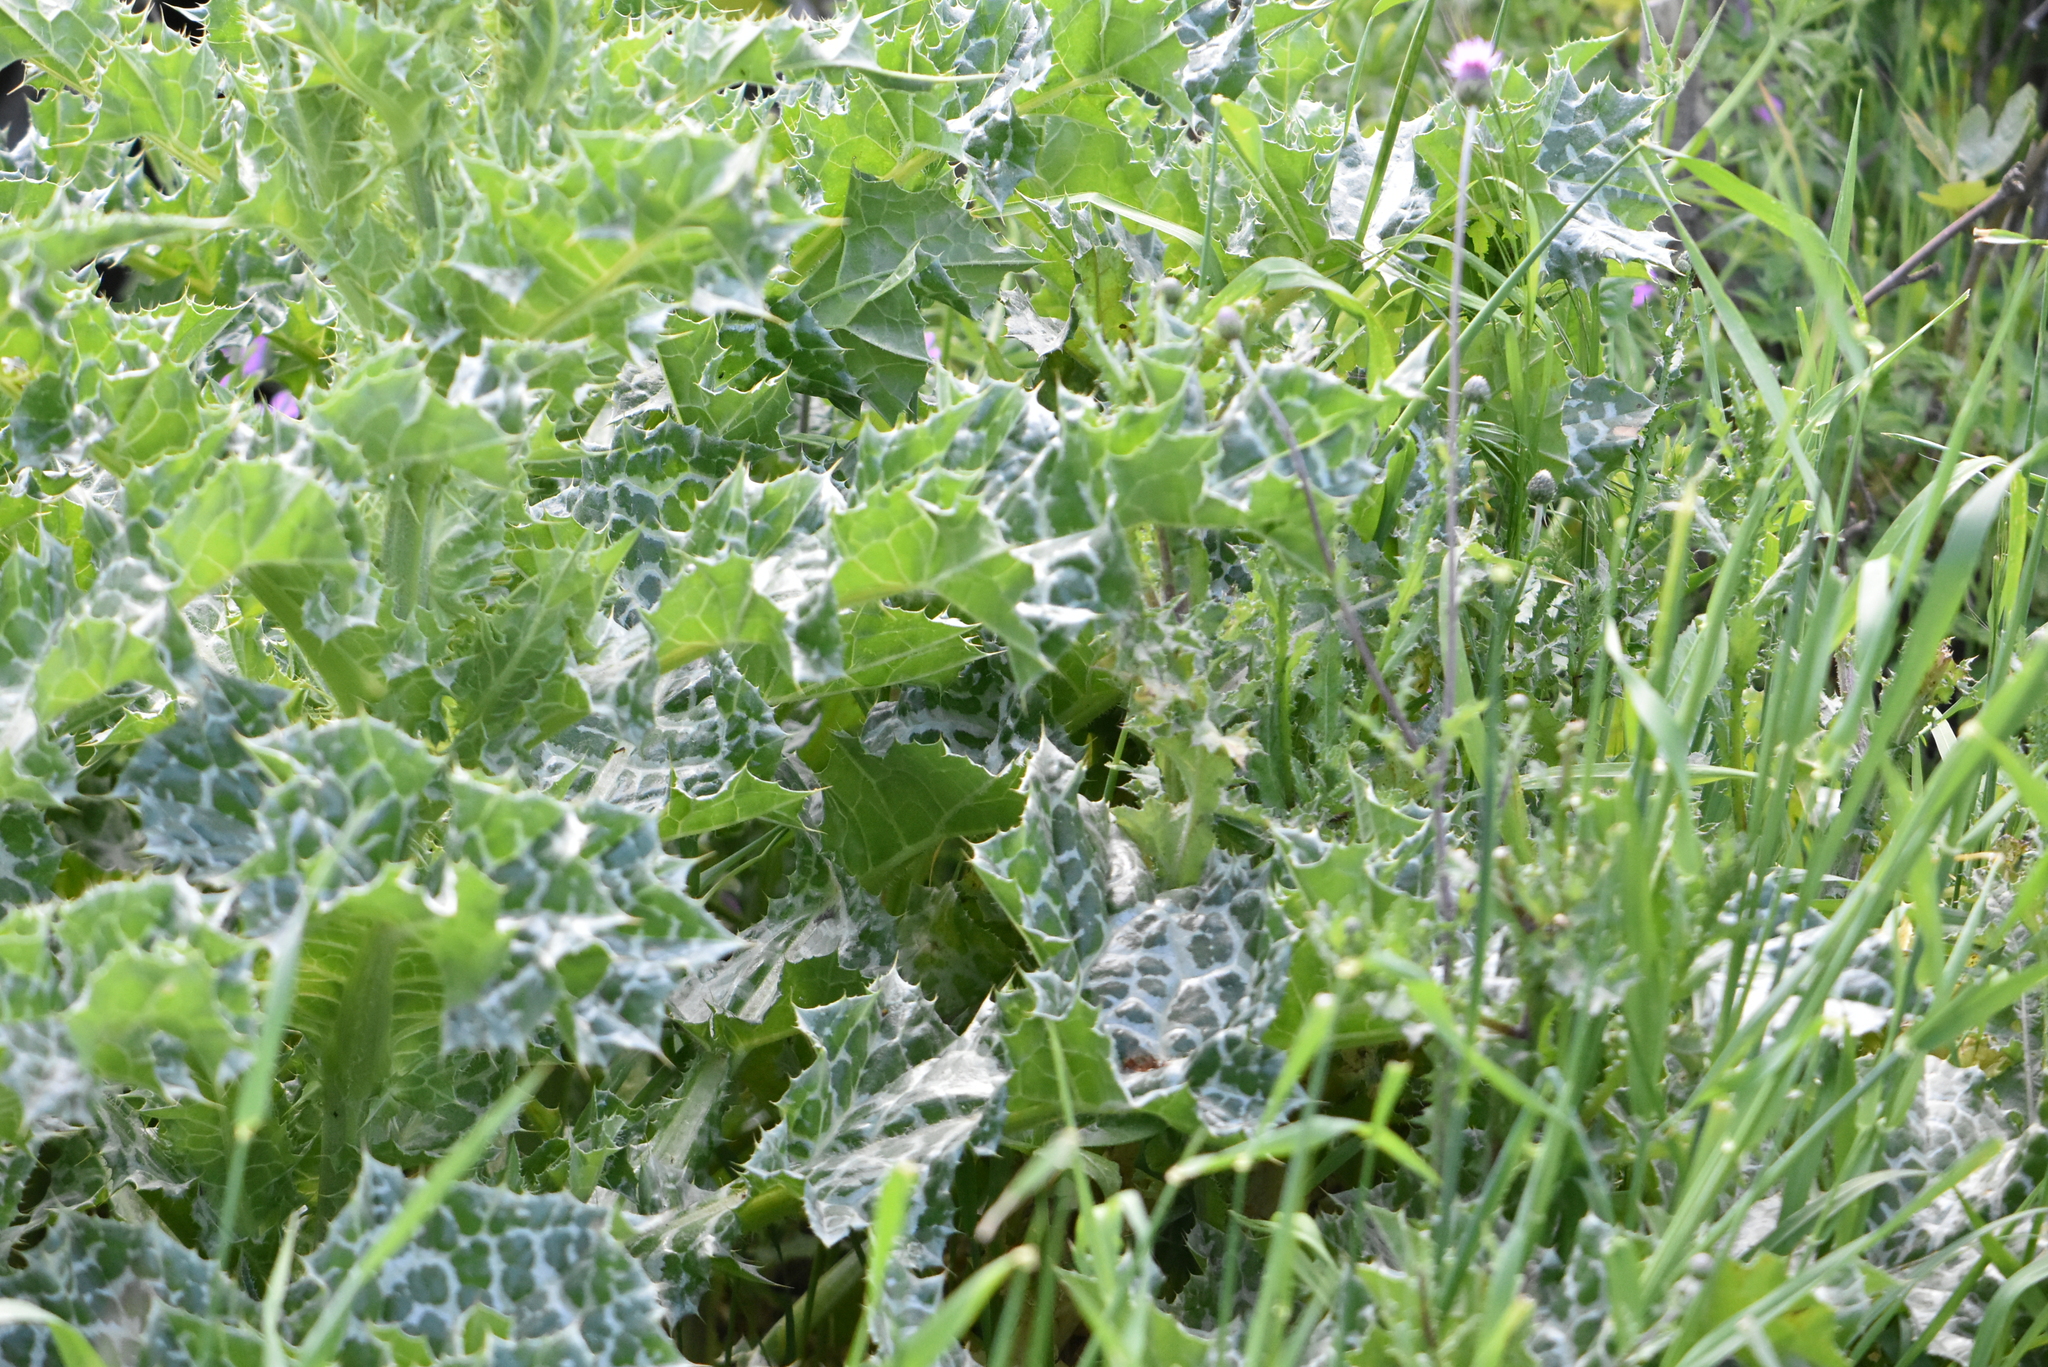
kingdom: Plantae
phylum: Tracheophyta
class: Magnoliopsida
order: Asterales
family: Asteraceae
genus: Silybum
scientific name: Silybum marianum
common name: Milk thistle
